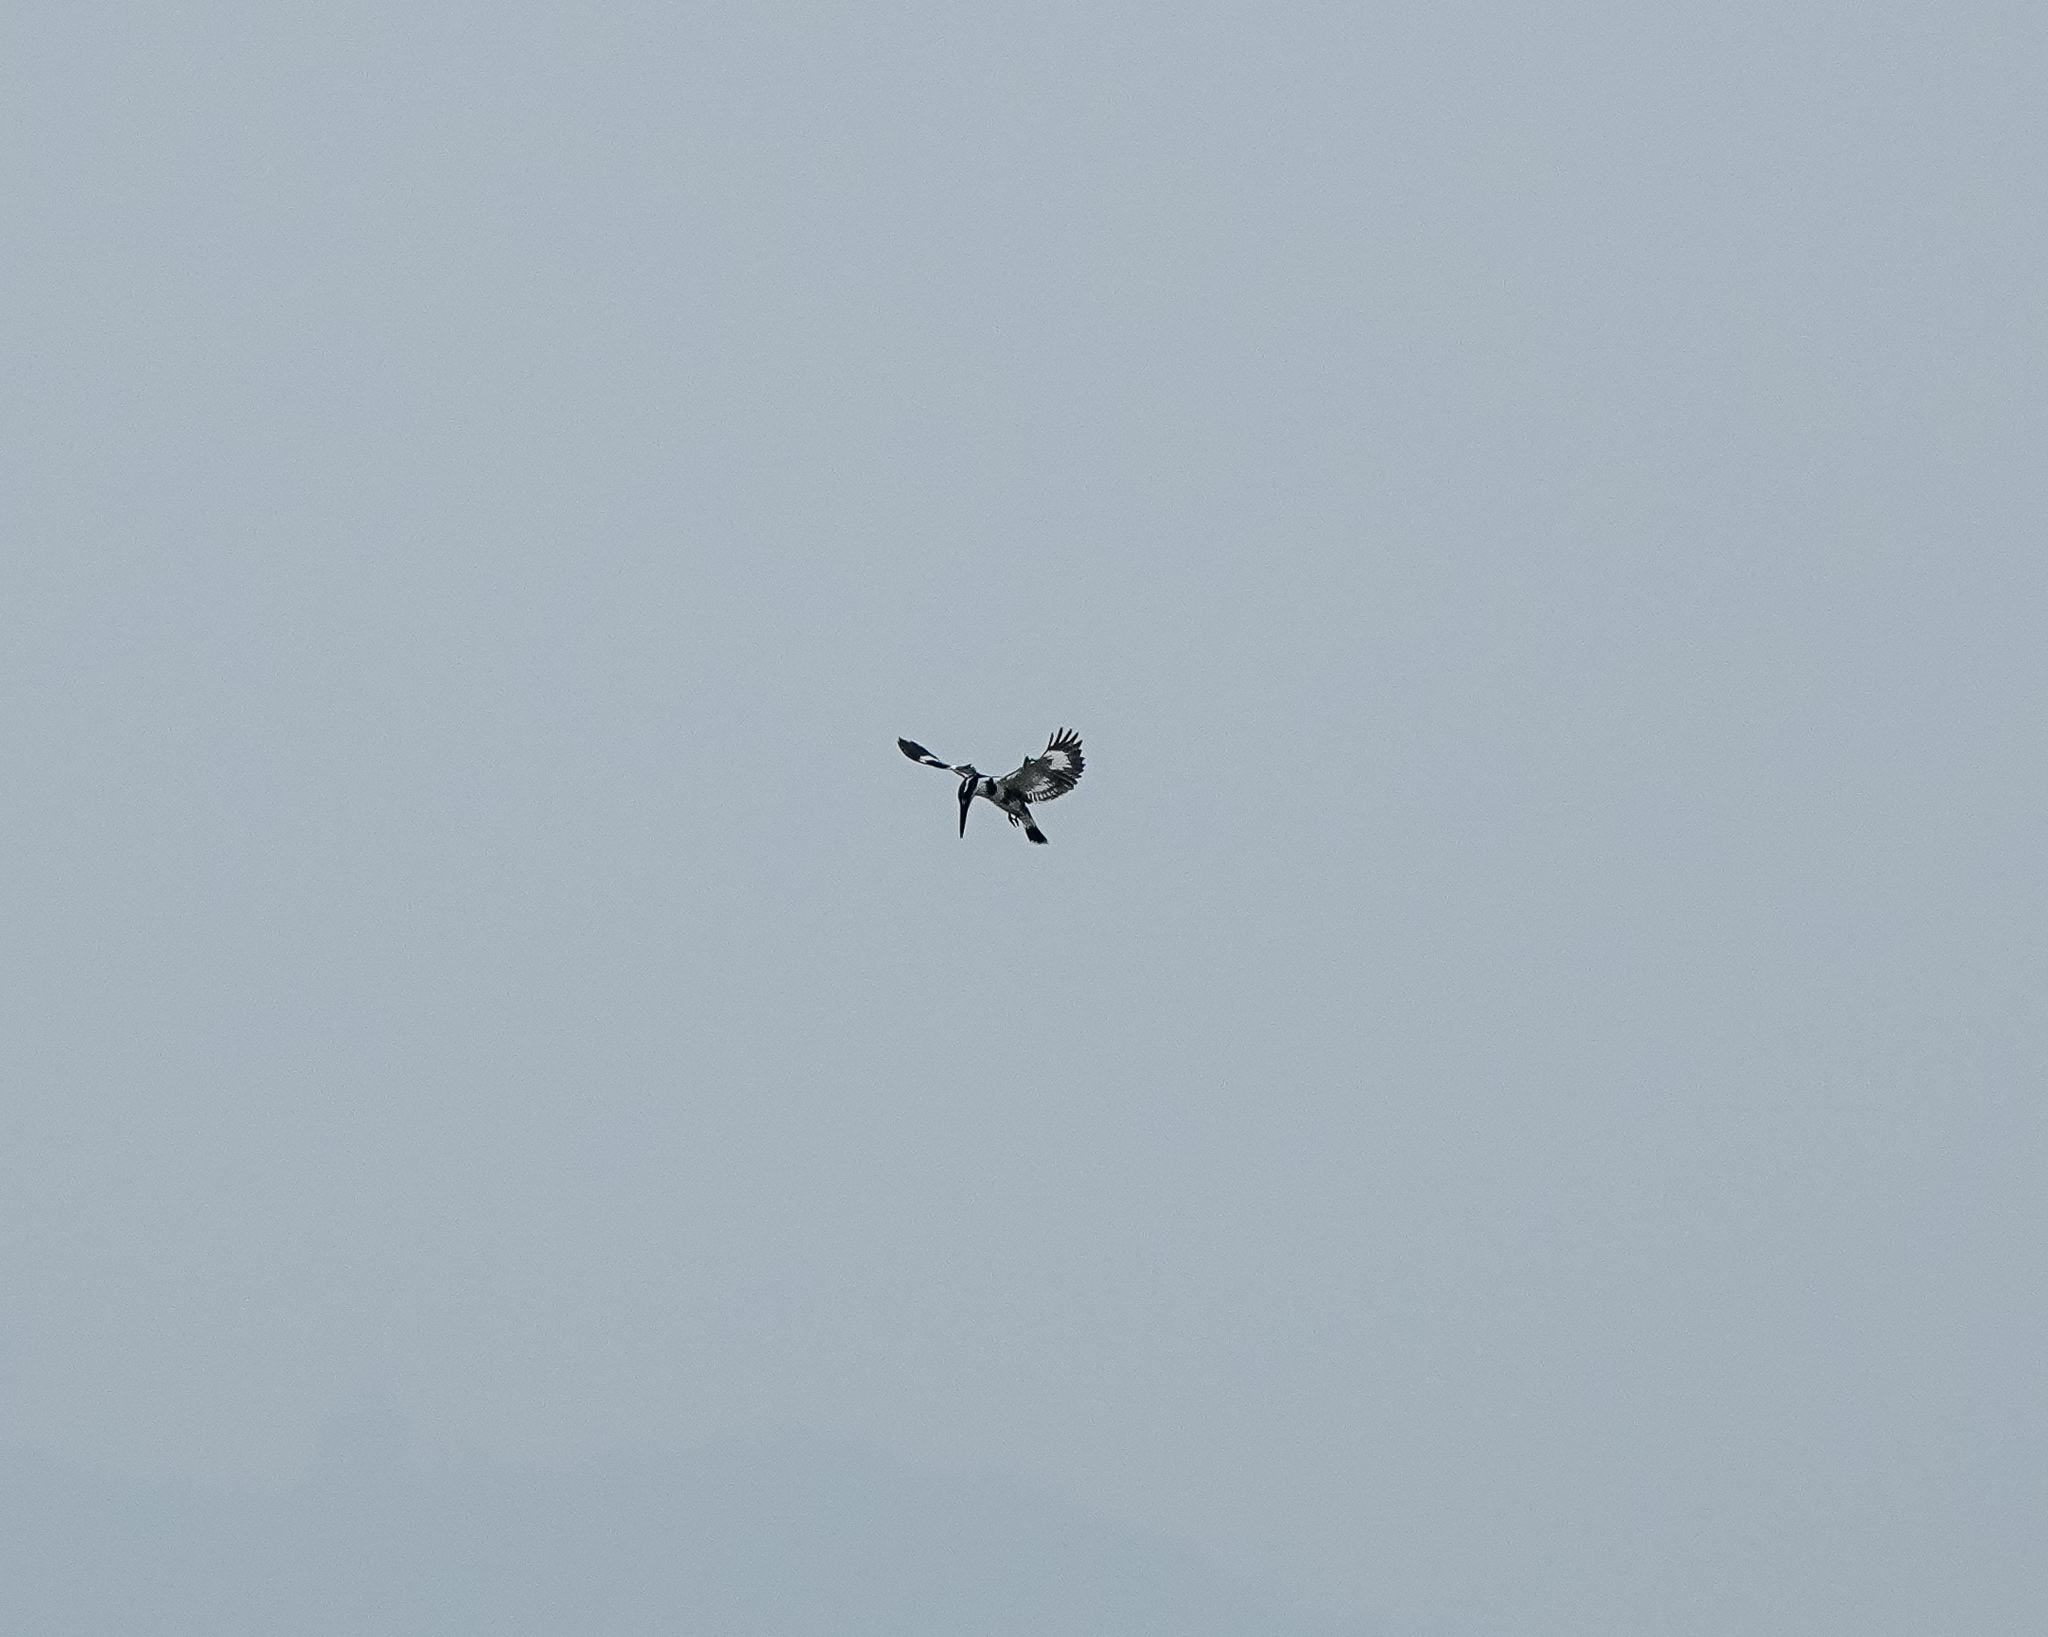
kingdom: Animalia
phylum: Chordata
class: Aves
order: Coraciiformes
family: Alcedinidae
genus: Ceryle
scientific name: Ceryle rudis
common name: Pied kingfisher
